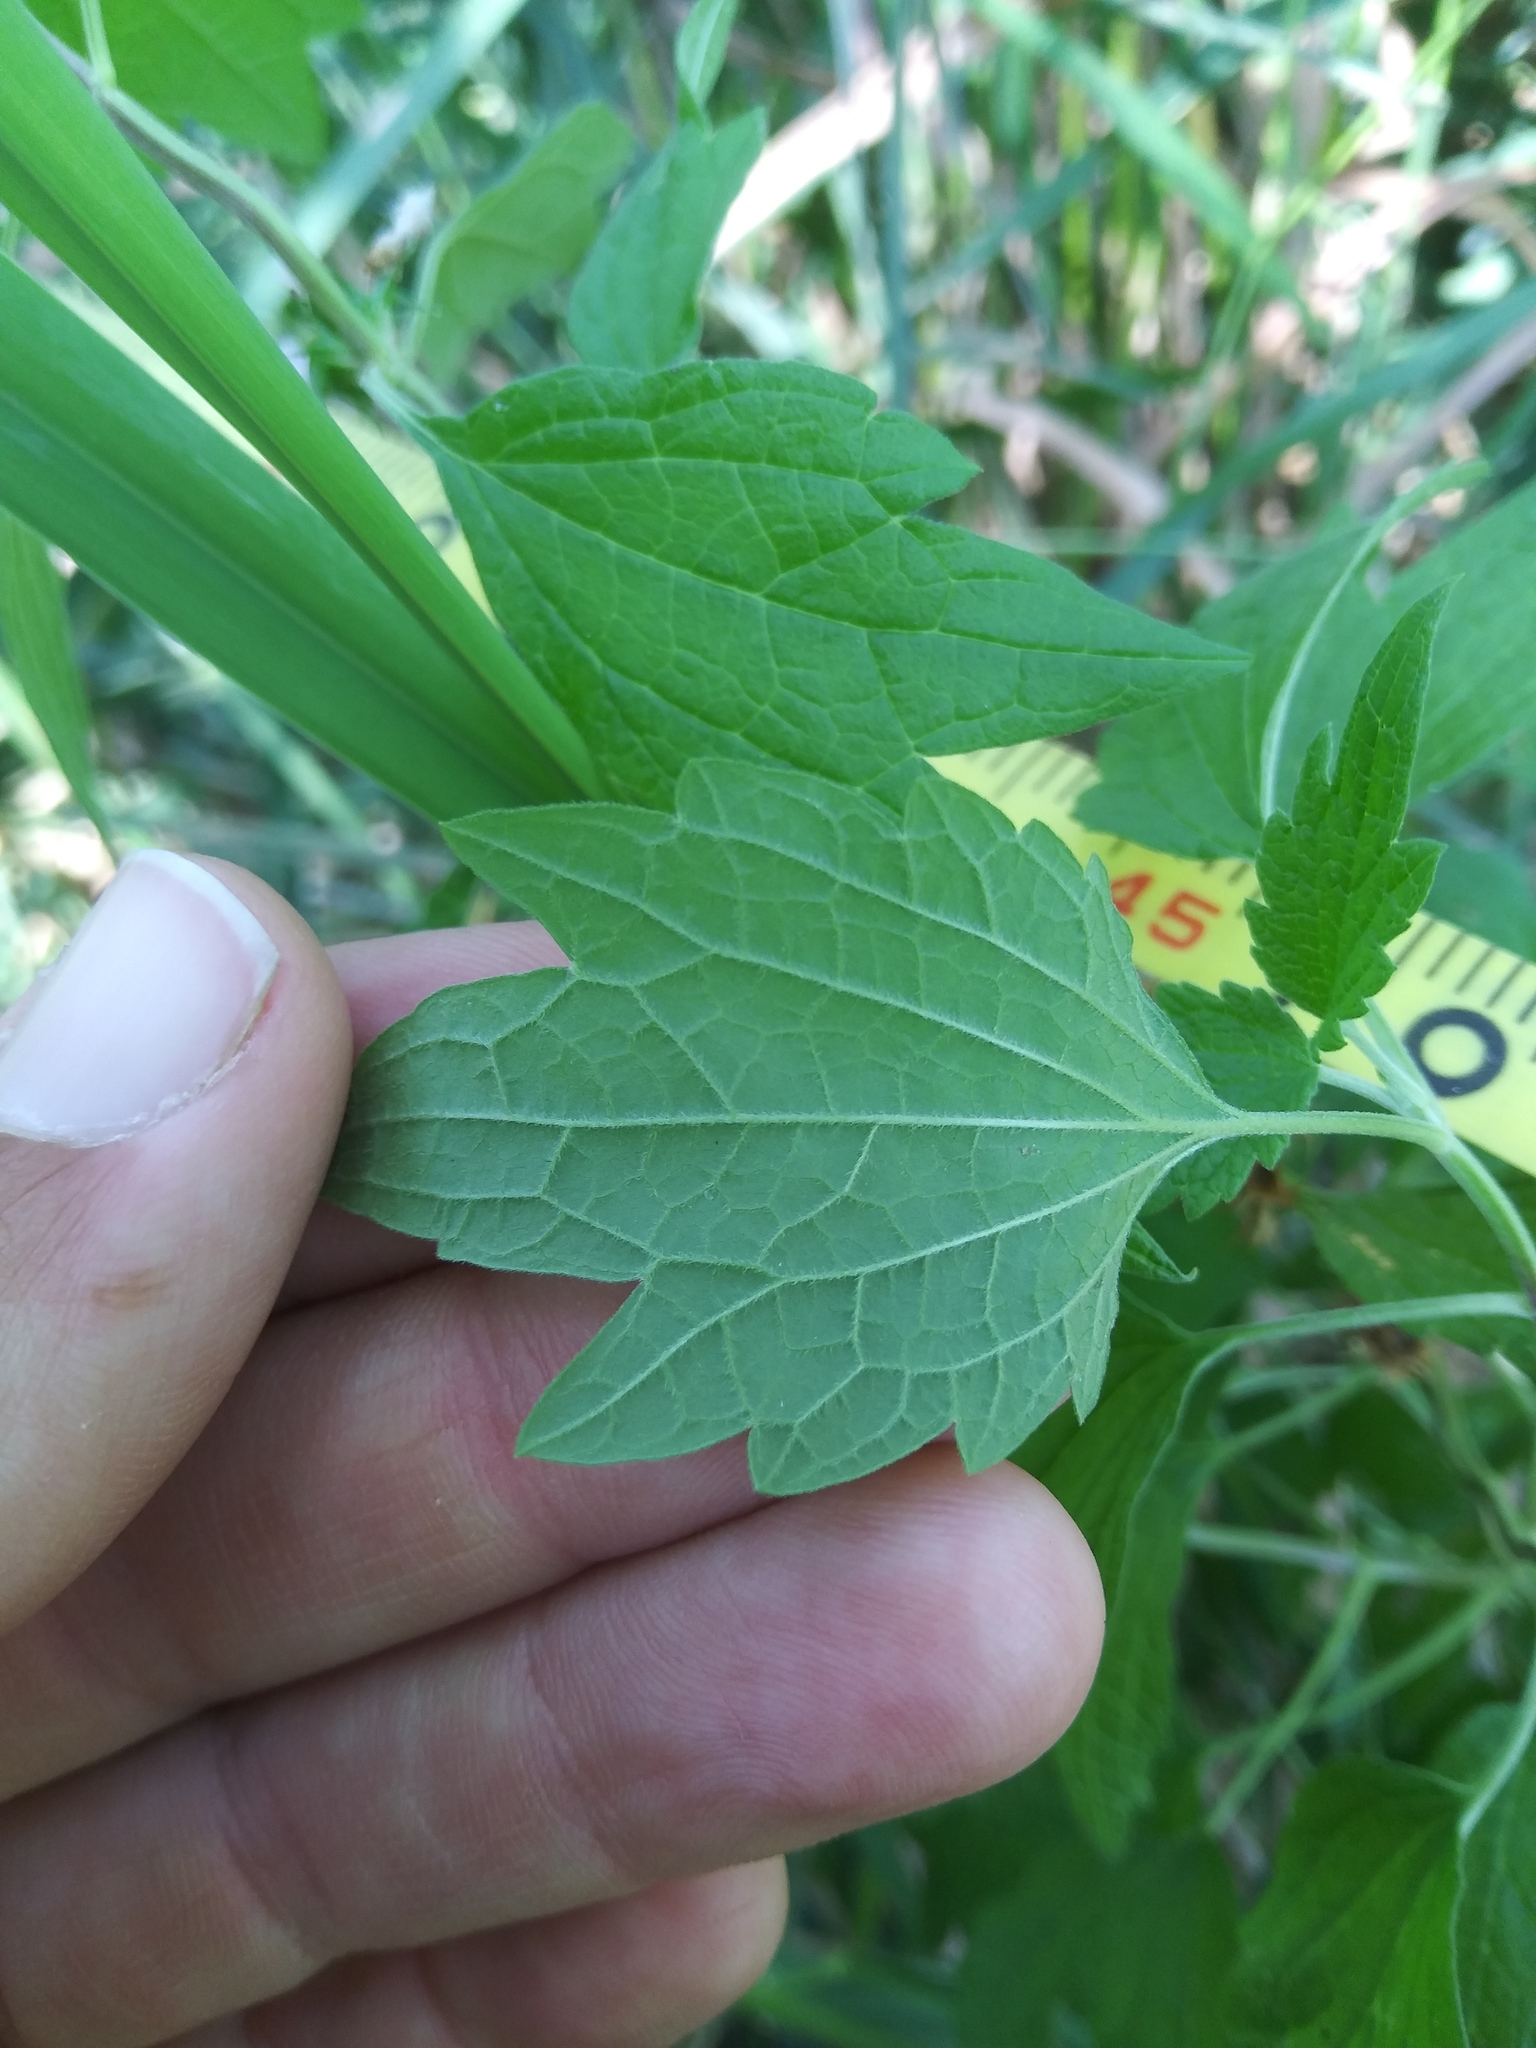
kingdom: Plantae
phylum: Tracheophyta
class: Magnoliopsida
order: Lamiales
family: Lamiaceae
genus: Leonurus
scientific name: Leonurus cardiaca
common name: Motherwort
